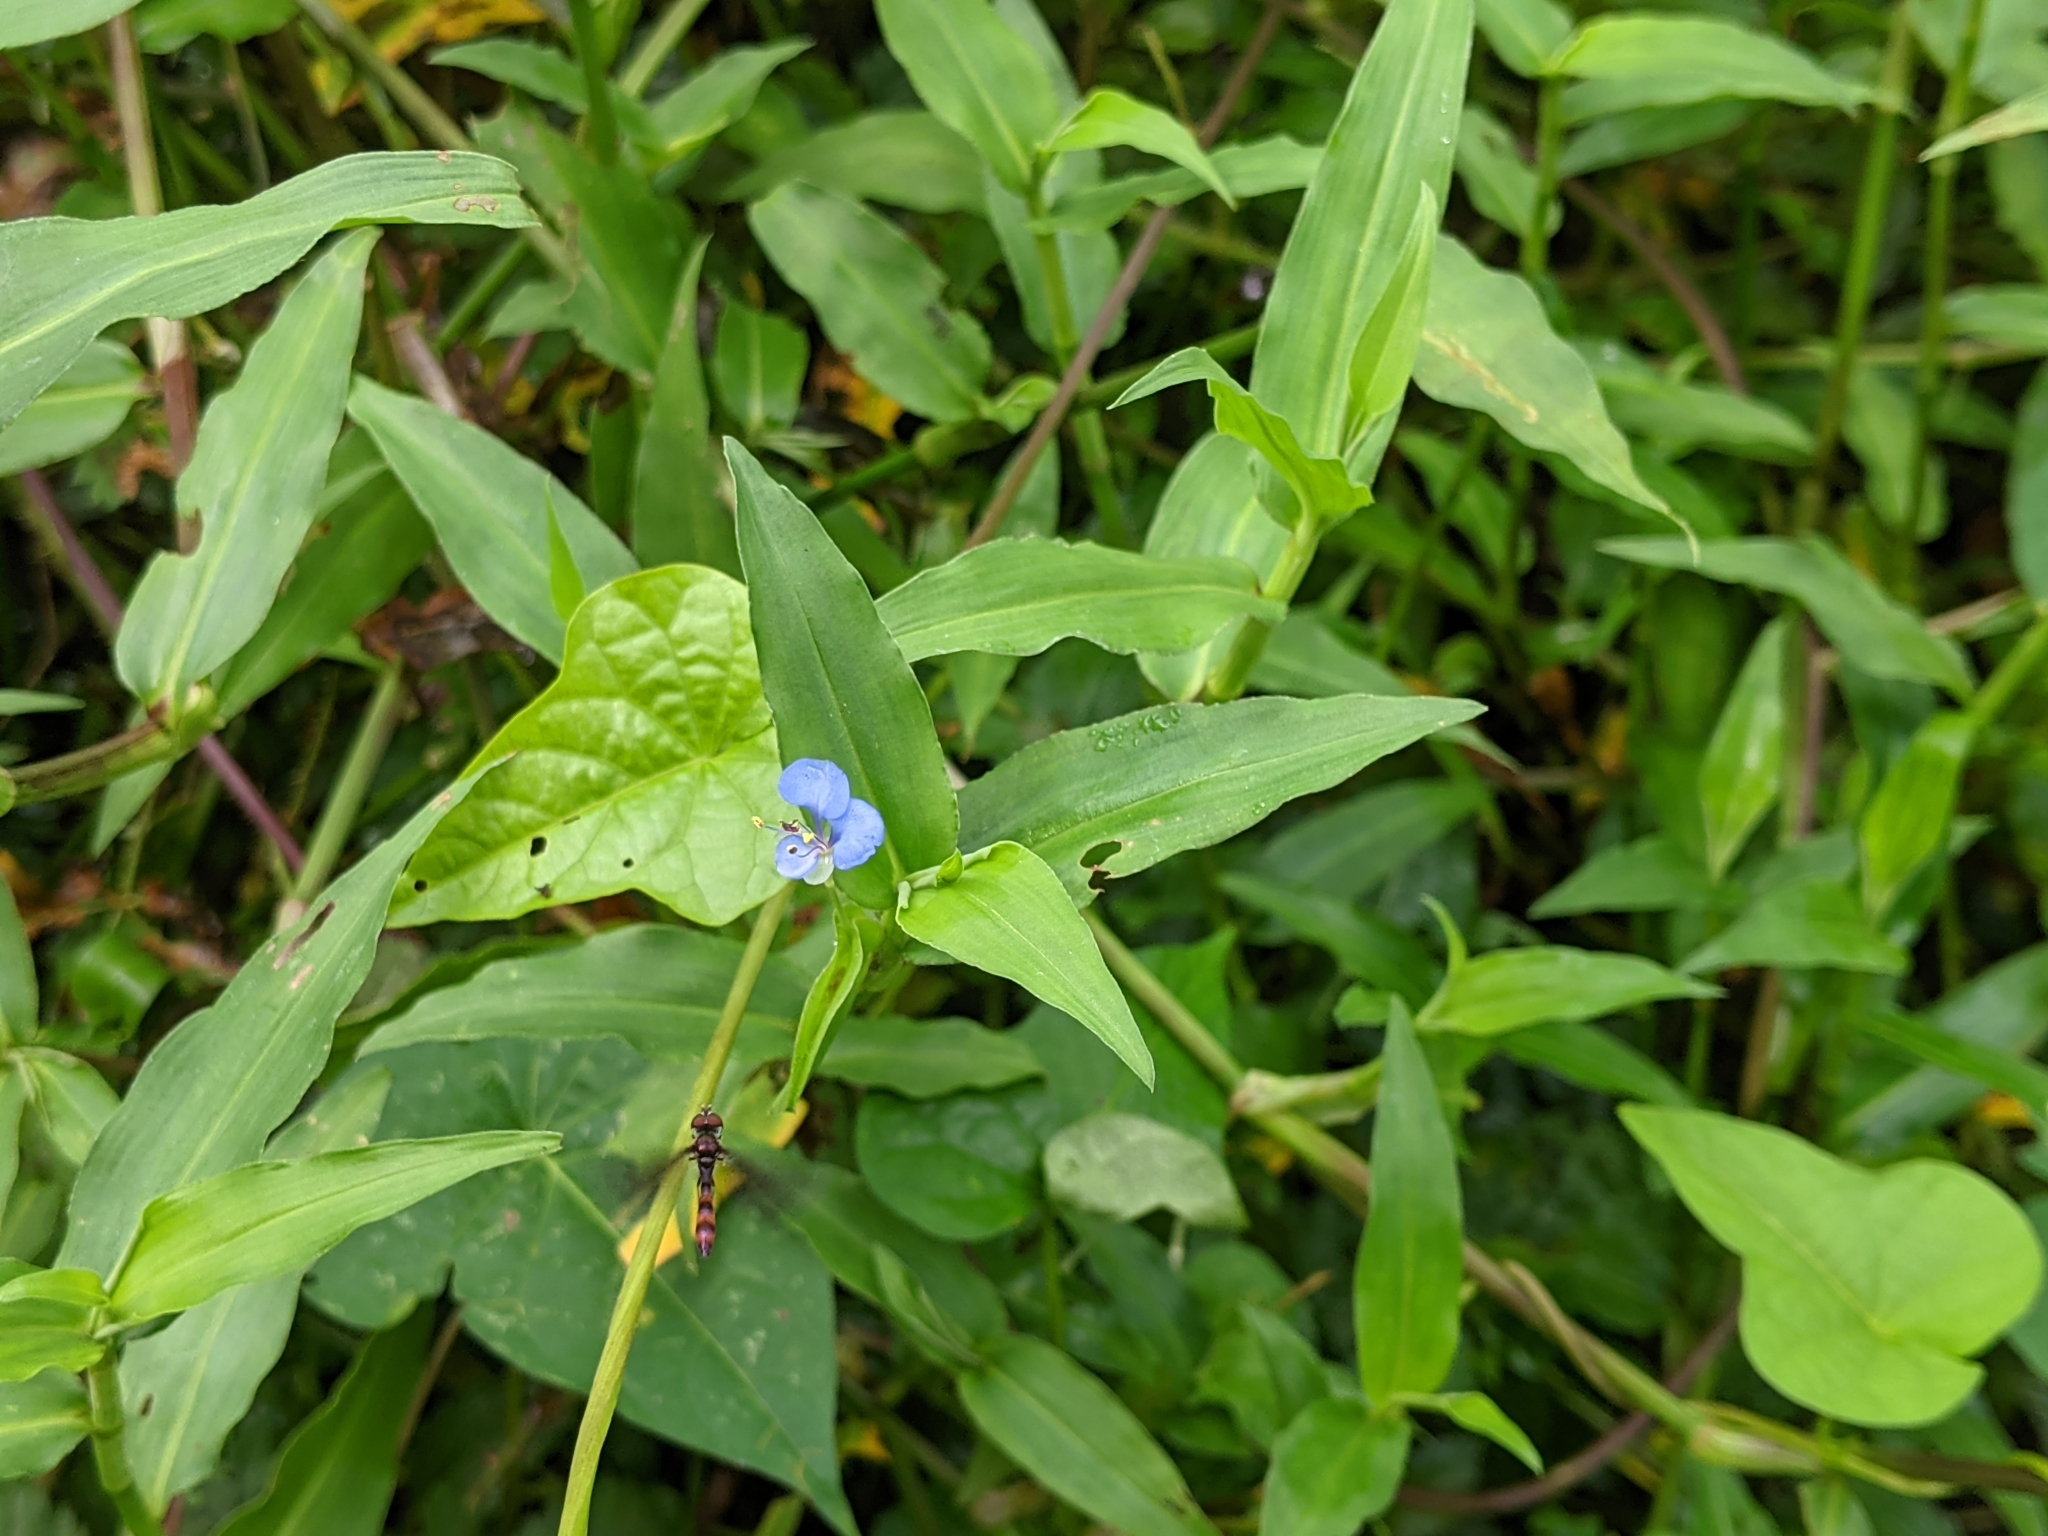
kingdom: Animalia
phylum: Arthropoda
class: Insecta
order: Diptera
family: Syrphidae
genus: Ocyptamus
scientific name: Ocyptamus fuscipennis
